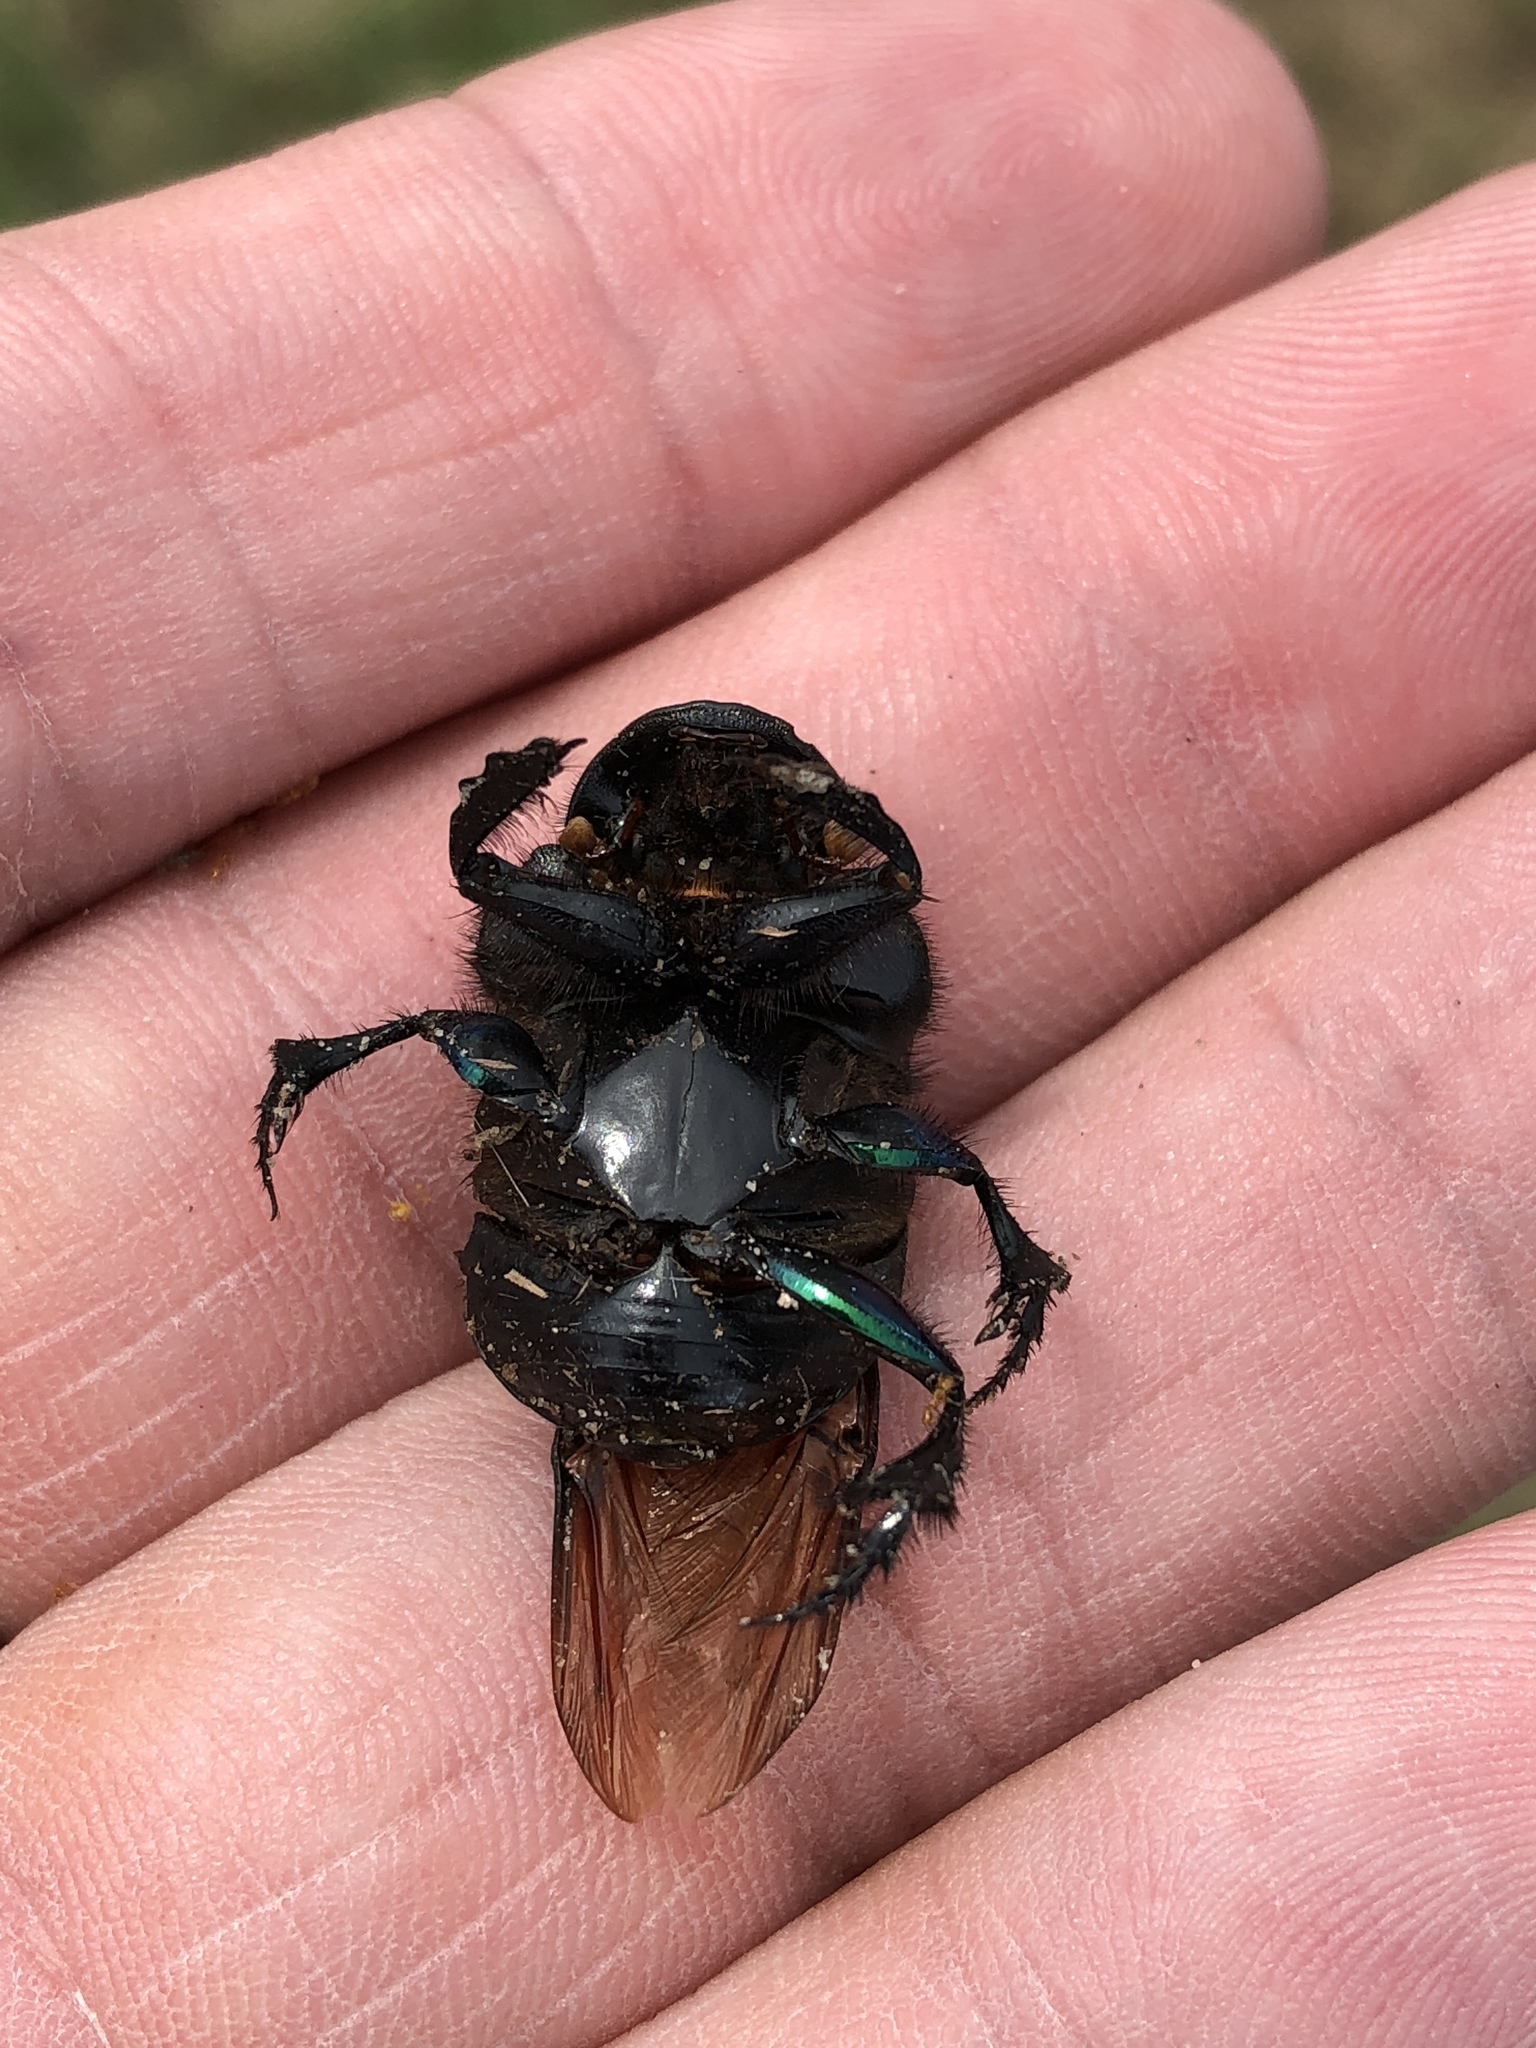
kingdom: Animalia
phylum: Arthropoda
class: Insecta
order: Coleoptera
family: Scarabaeidae
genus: Phanaeus
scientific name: Phanaeus difformis
